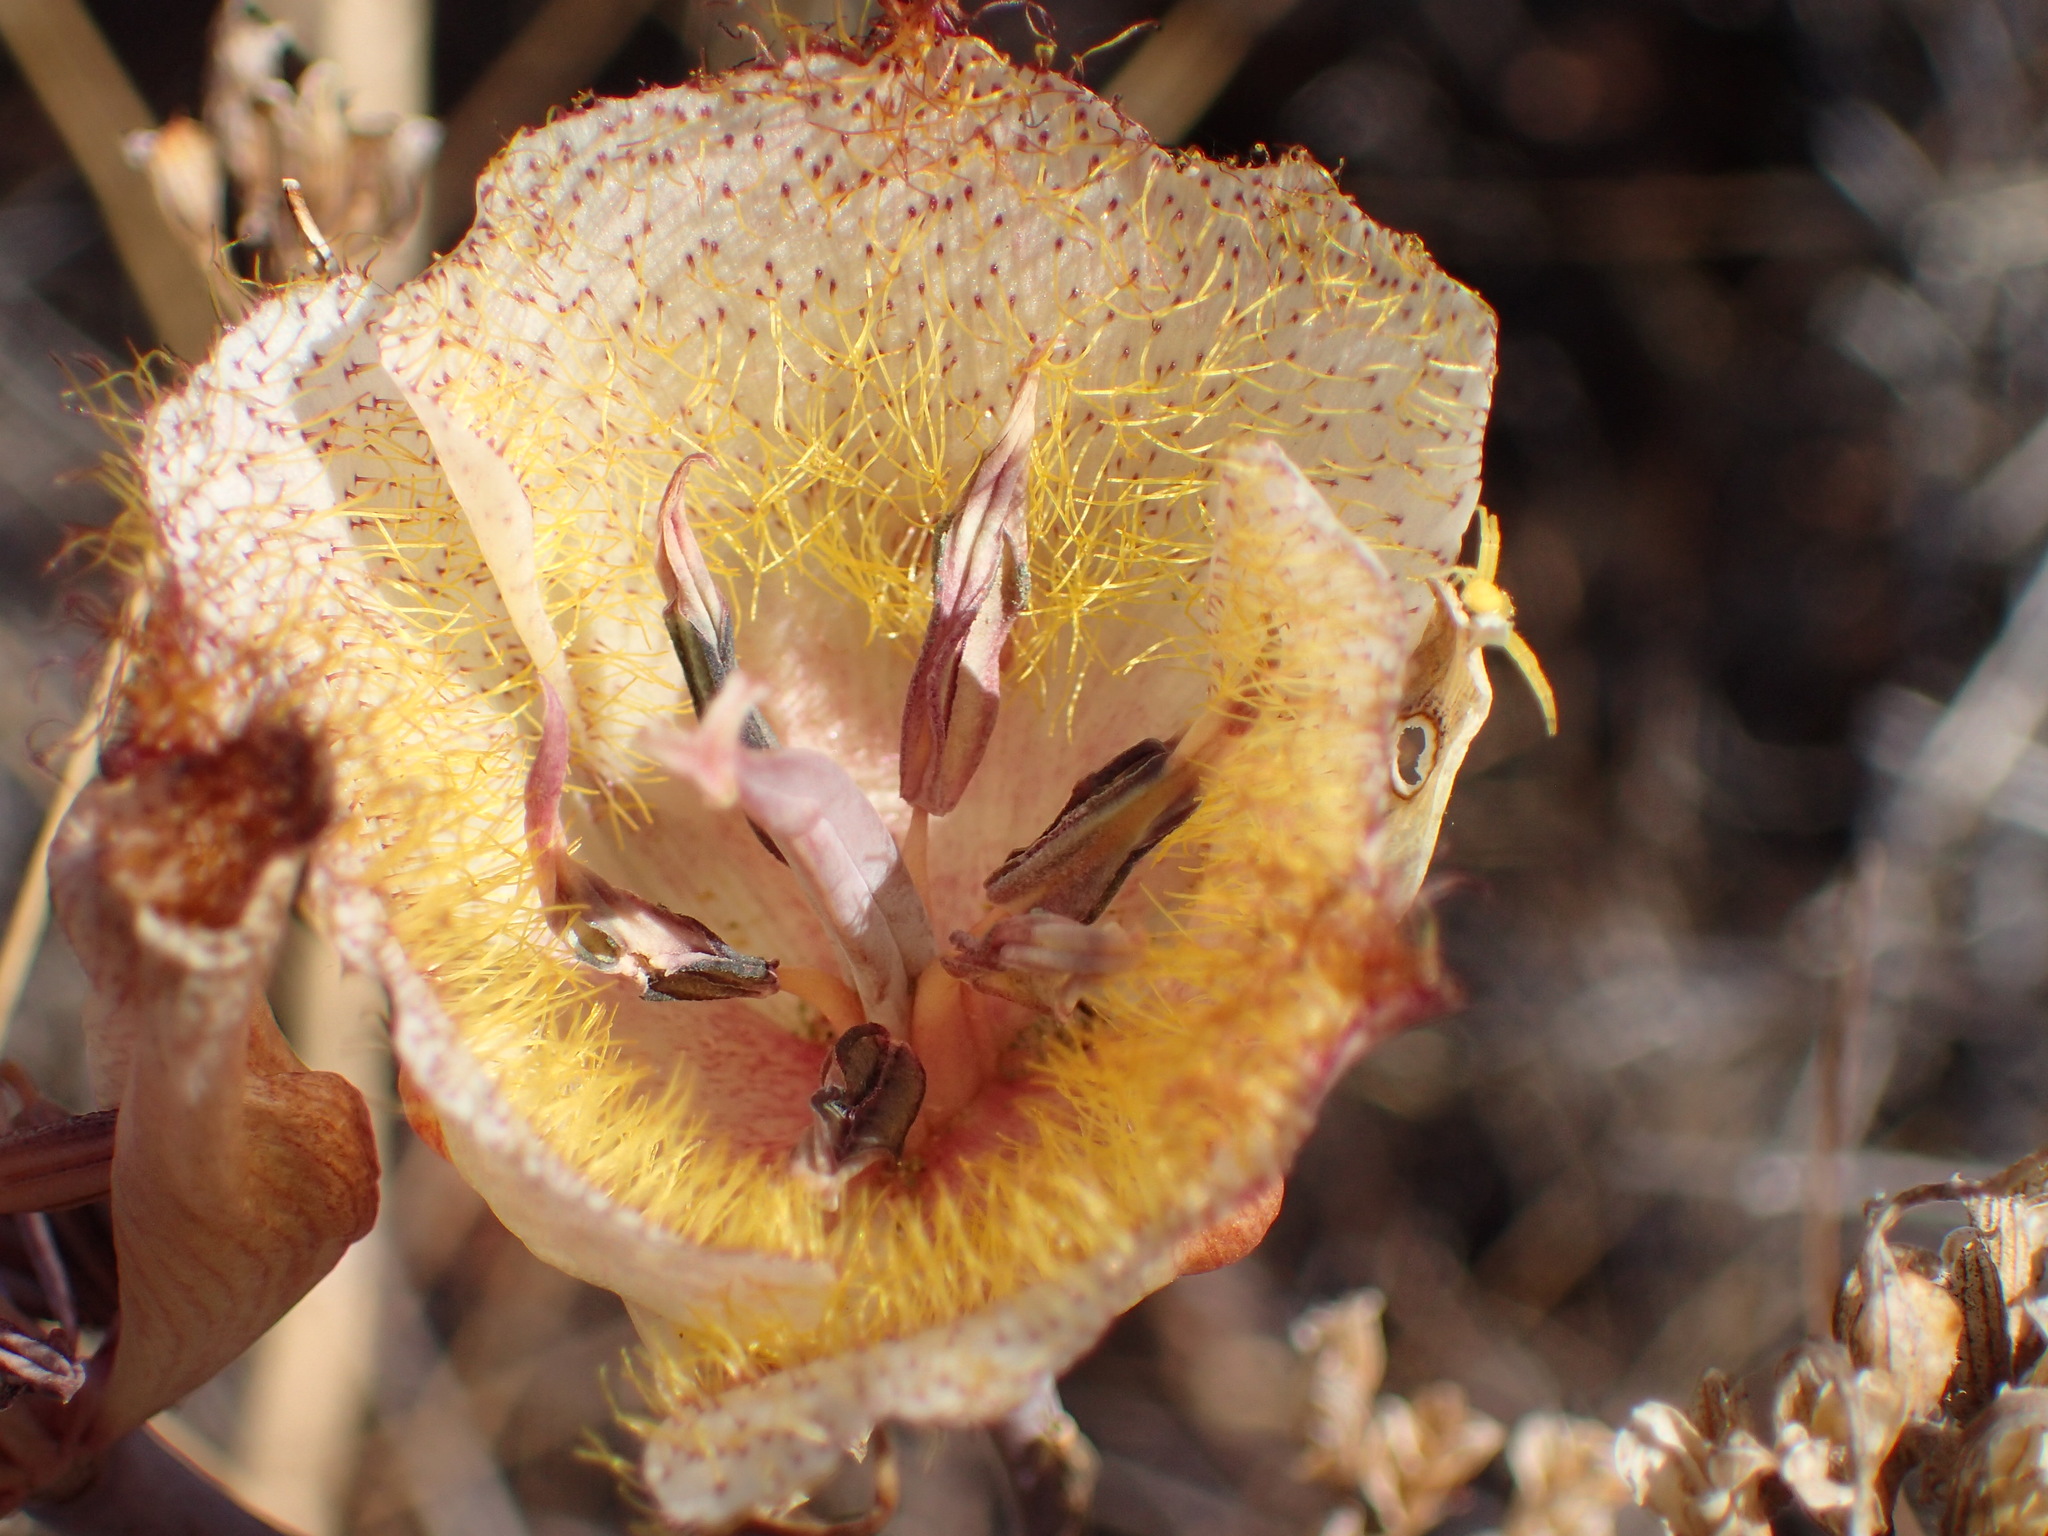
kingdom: Plantae
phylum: Tracheophyta
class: Liliopsida
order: Liliales
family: Liliaceae
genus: Calochortus
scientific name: Calochortus fimbriatus
